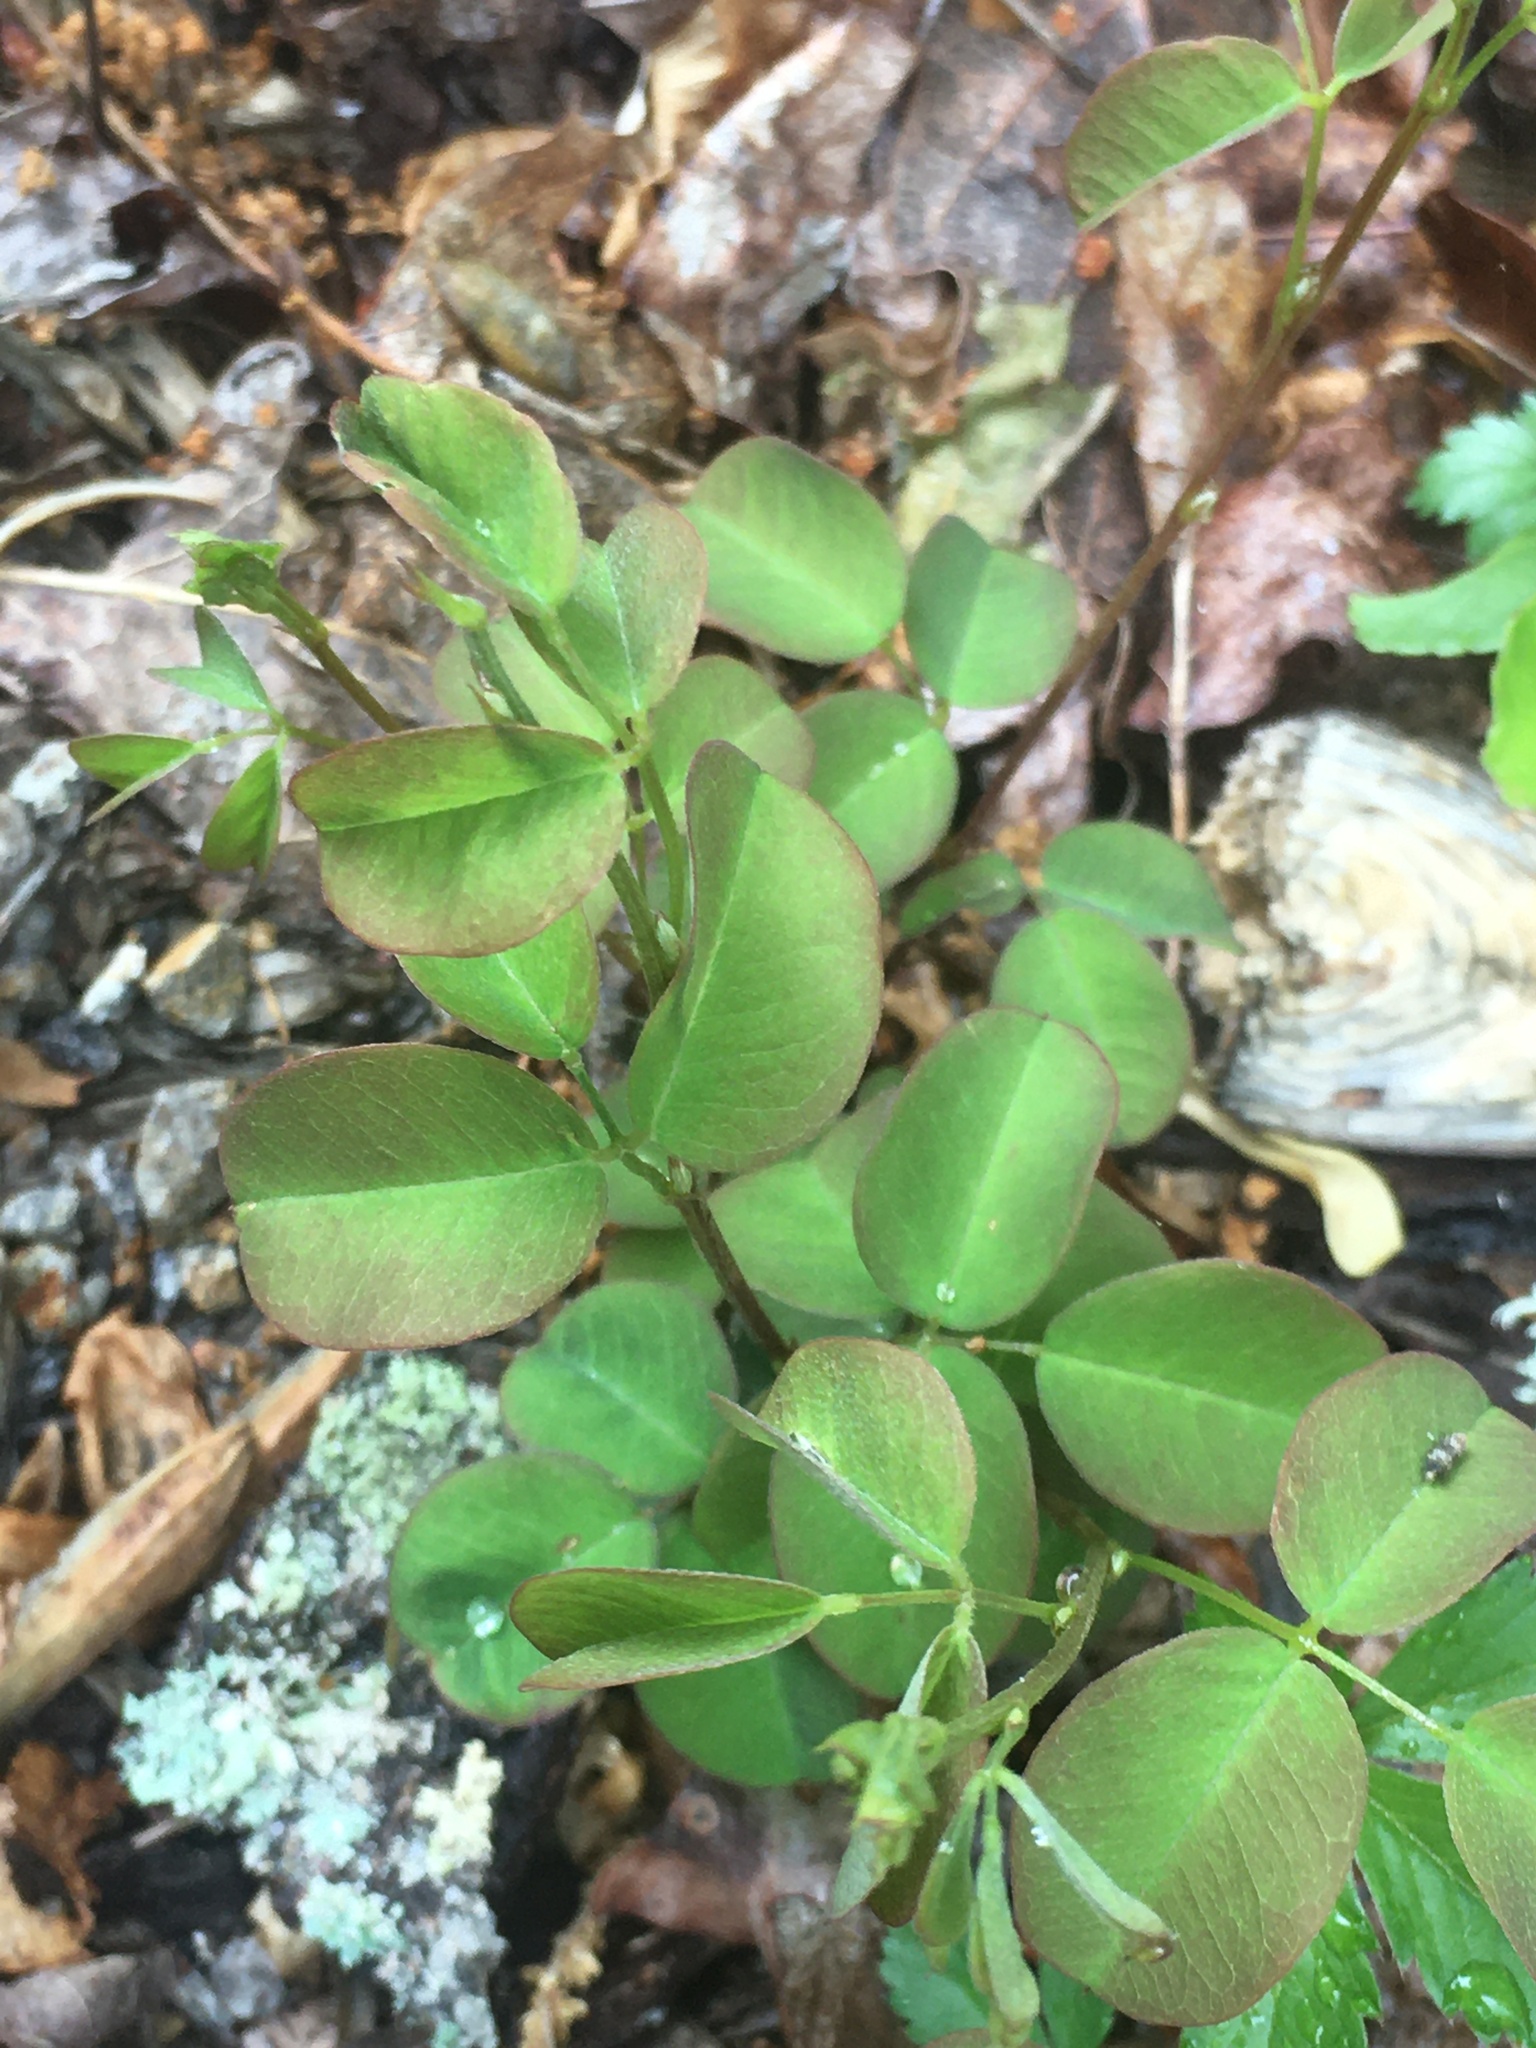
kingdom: Plantae
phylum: Tracheophyta
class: Magnoliopsida
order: Fabales
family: Fabaceae
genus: Lespedeza
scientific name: Lespedeza repens
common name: Creeping bush-clover
